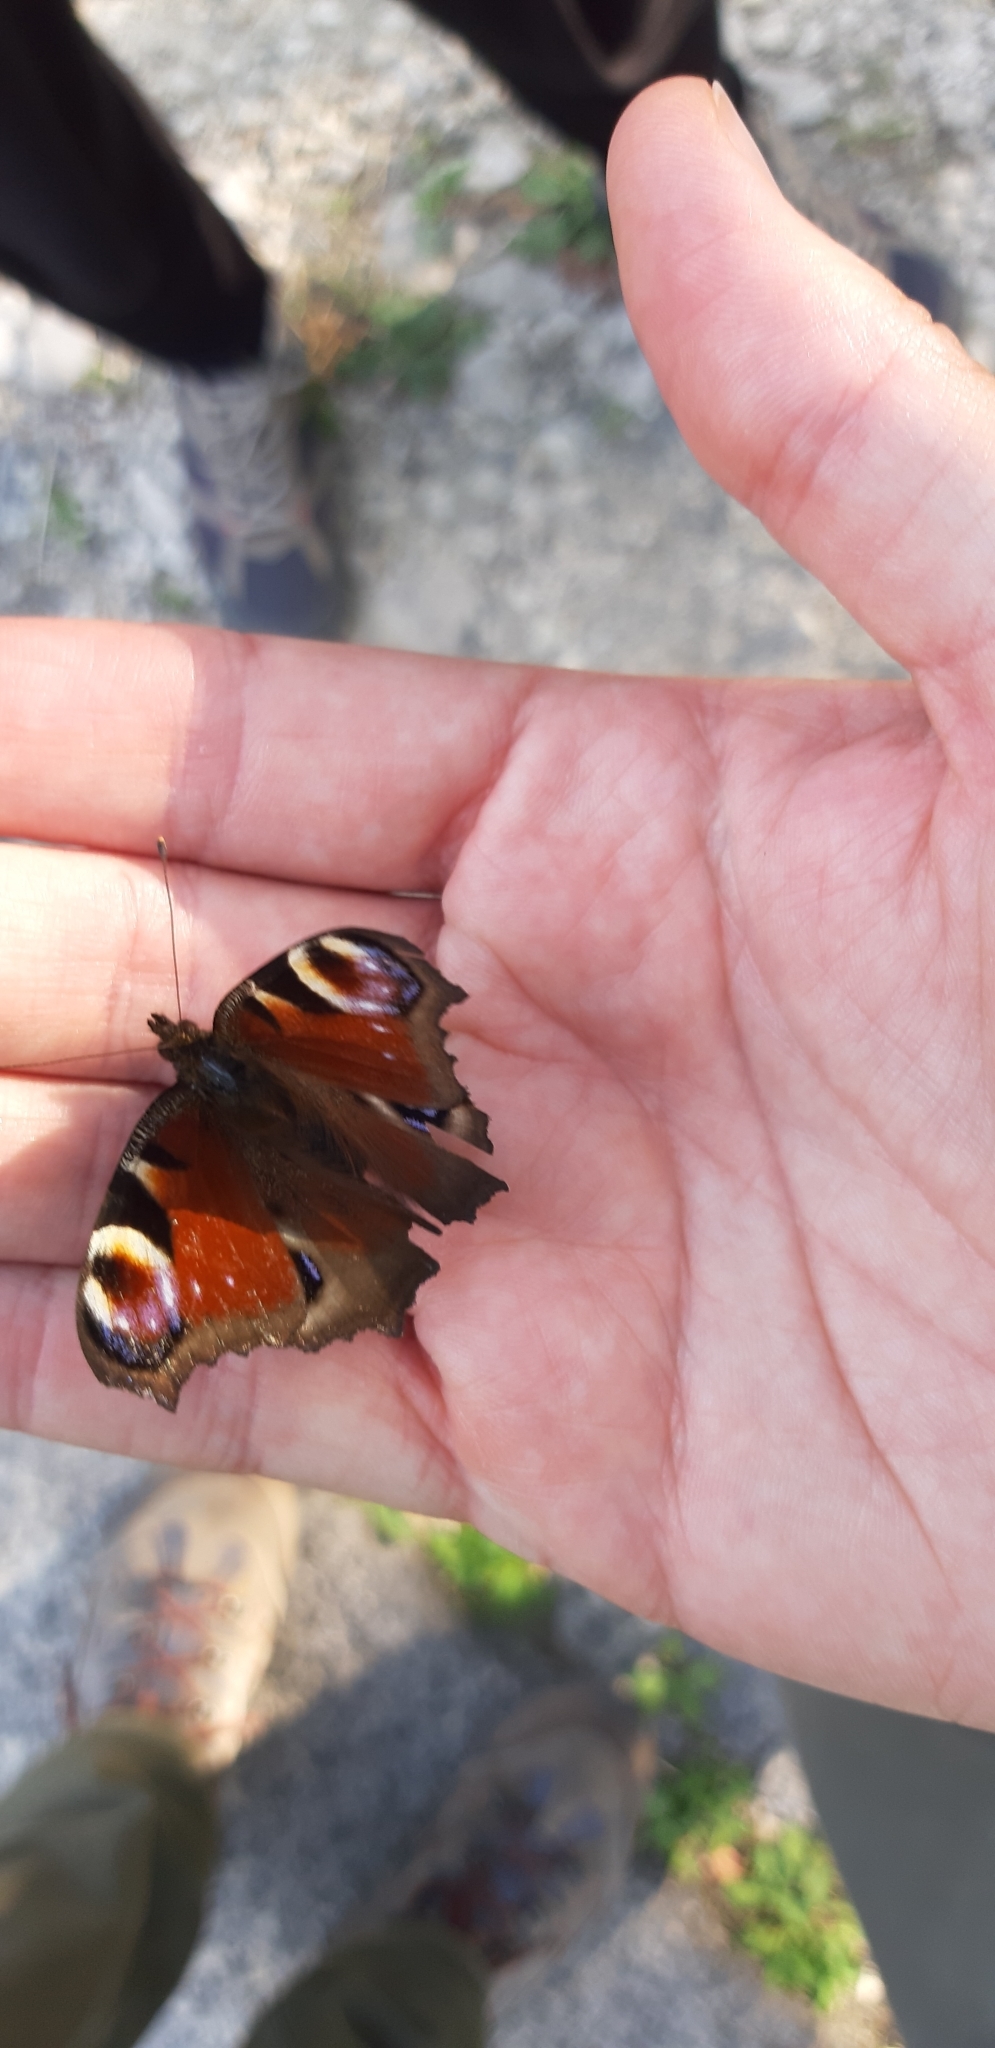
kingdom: Animalia
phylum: Arthropoda
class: Insecta
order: Lepidoptera
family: Nymphalidae
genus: Aglais
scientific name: Aglais io
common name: Peacock
